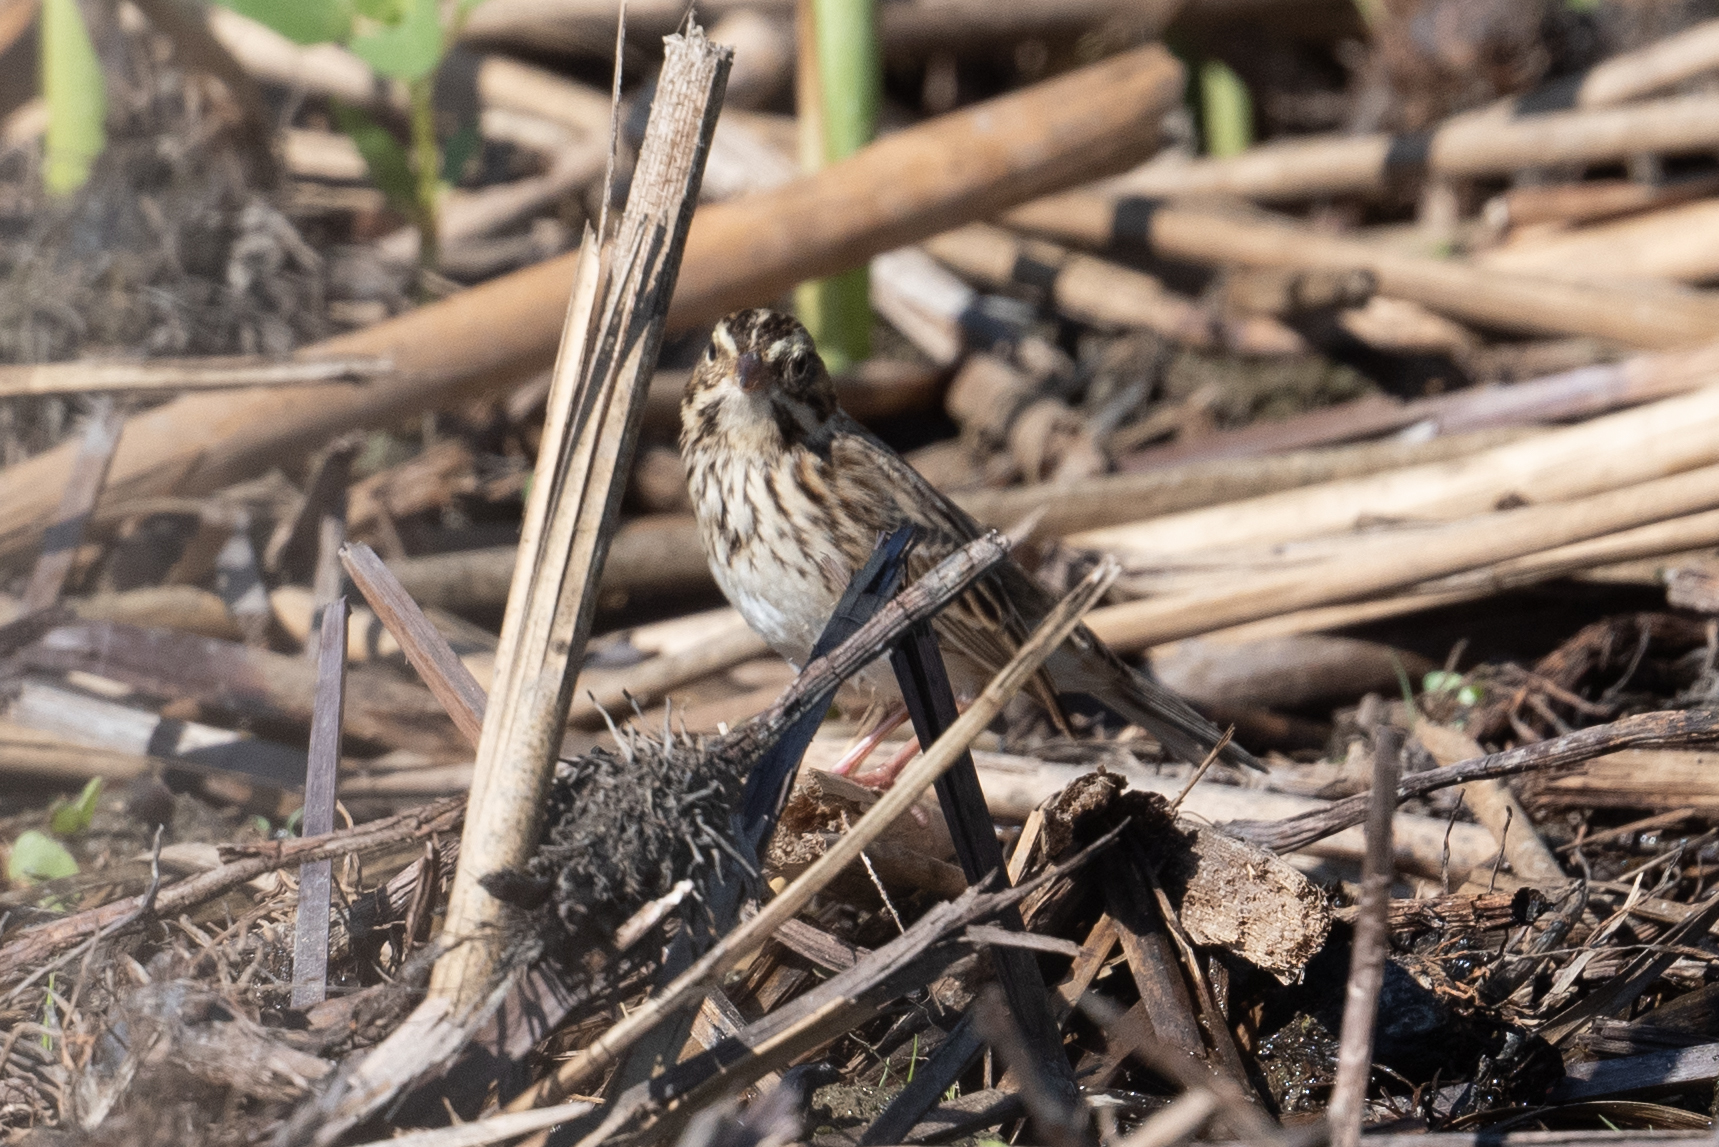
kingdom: Animalia
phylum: Chordata
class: Aves
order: Passeriformes
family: Passerellidae
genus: Passerculus
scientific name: Passerculus sandwichensis
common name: Savannah sparrow
